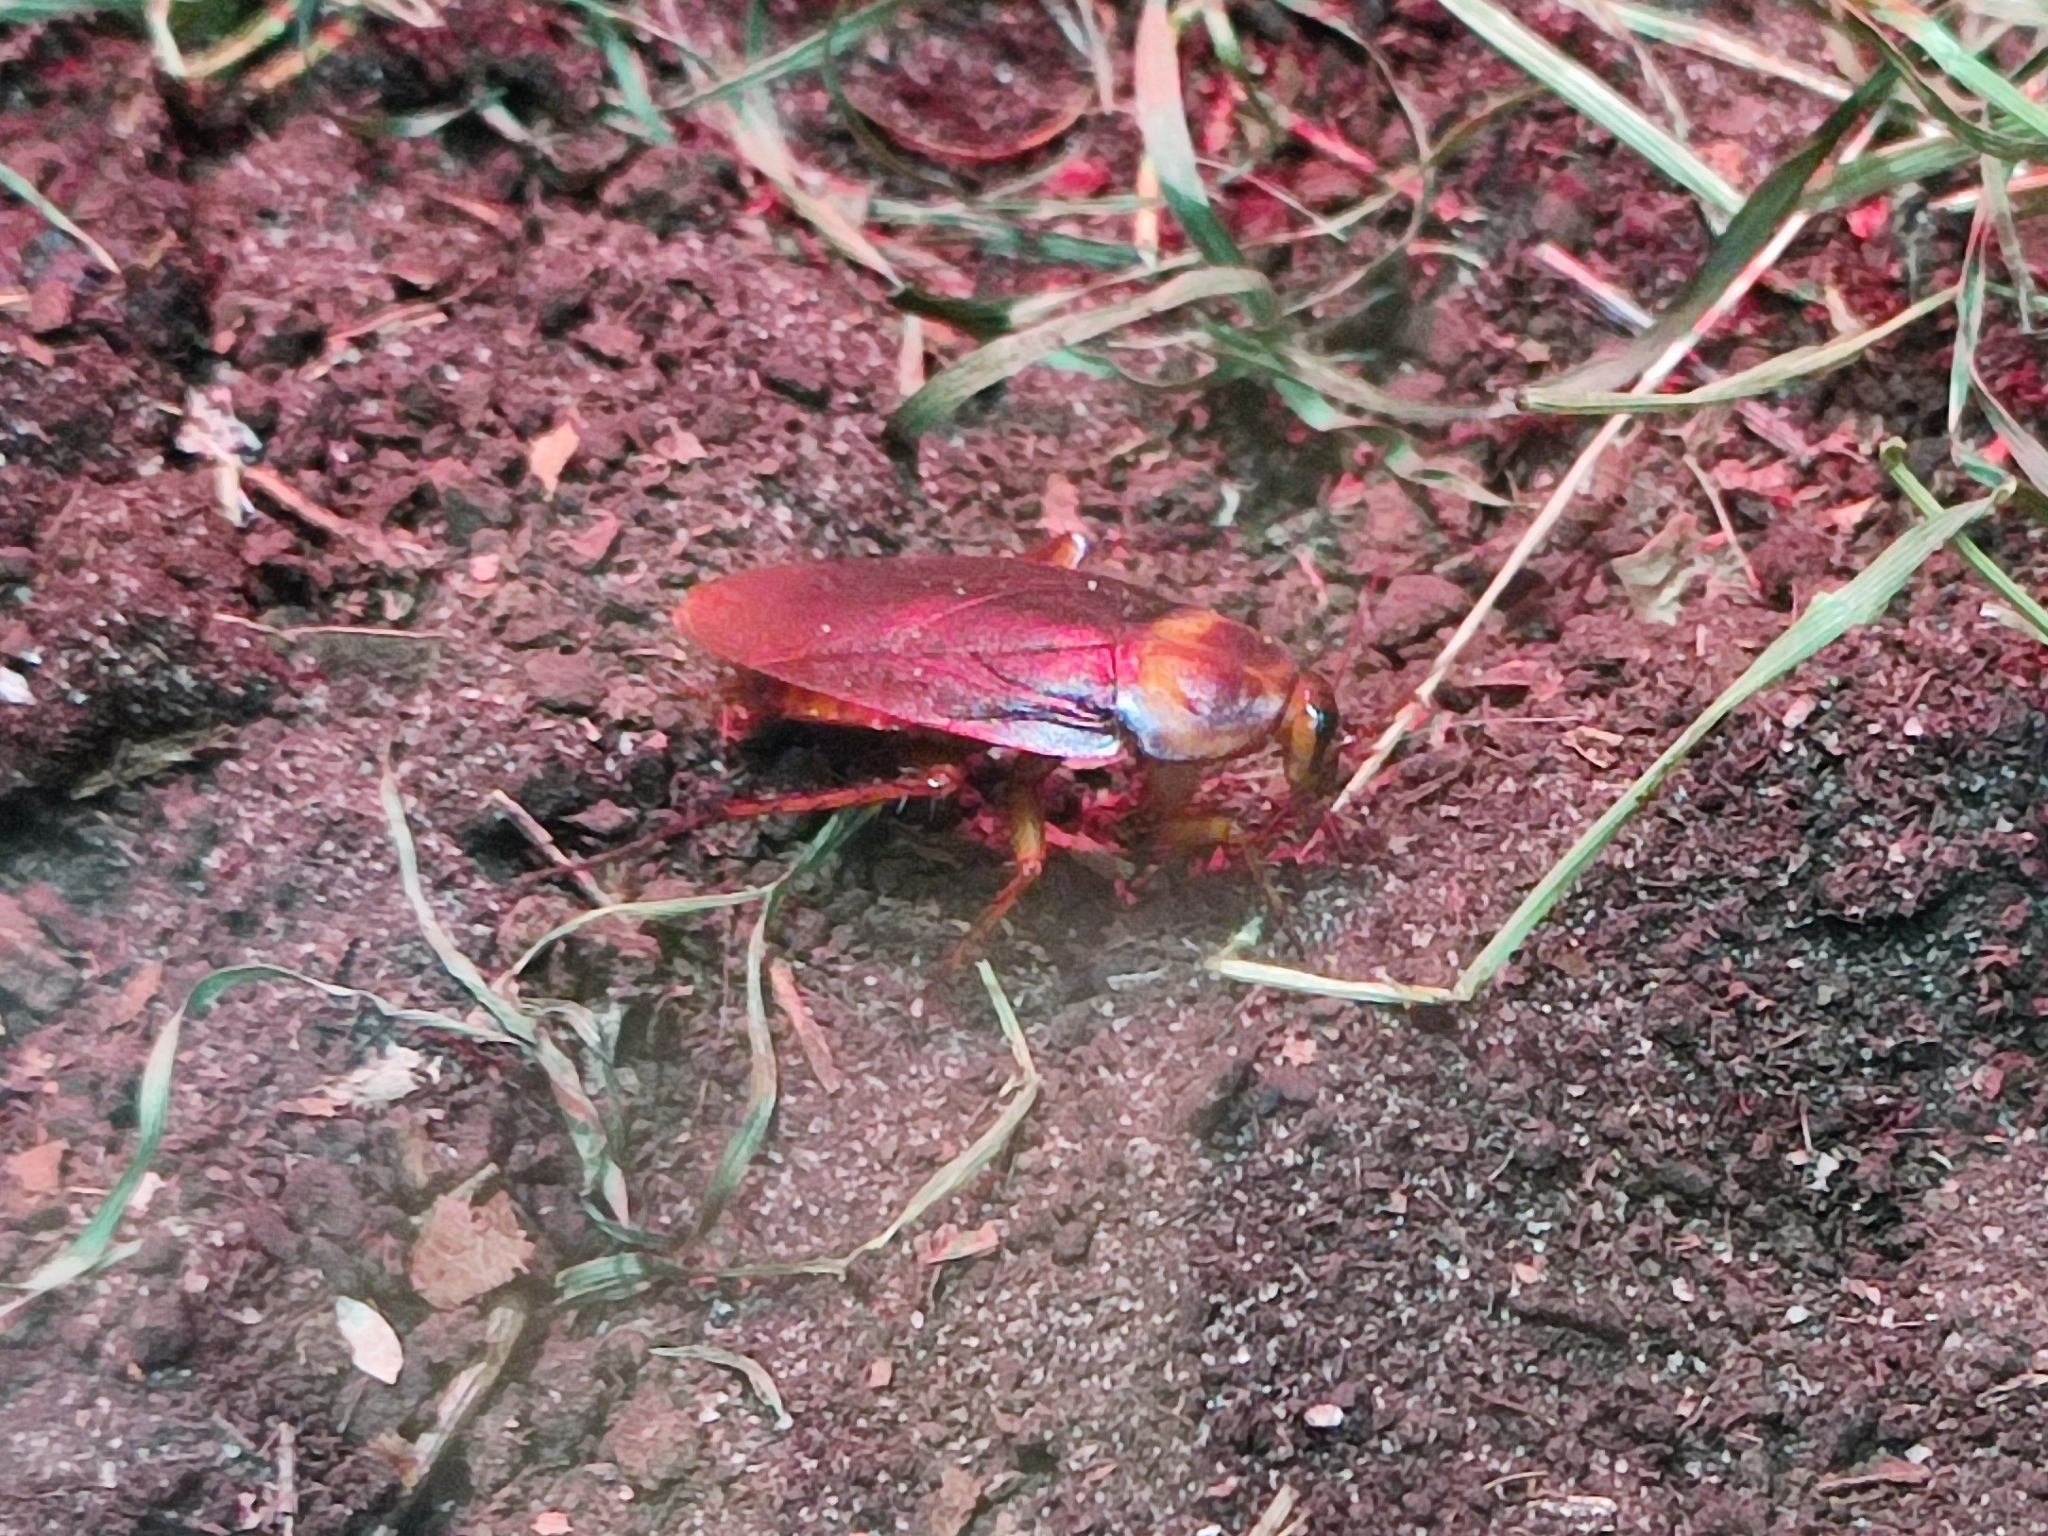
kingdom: Animalia
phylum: Arthropoda
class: Insecta
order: Blattodea
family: Blattidae
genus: Periplaneta
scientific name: Periplaneta americana
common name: American cockroach
